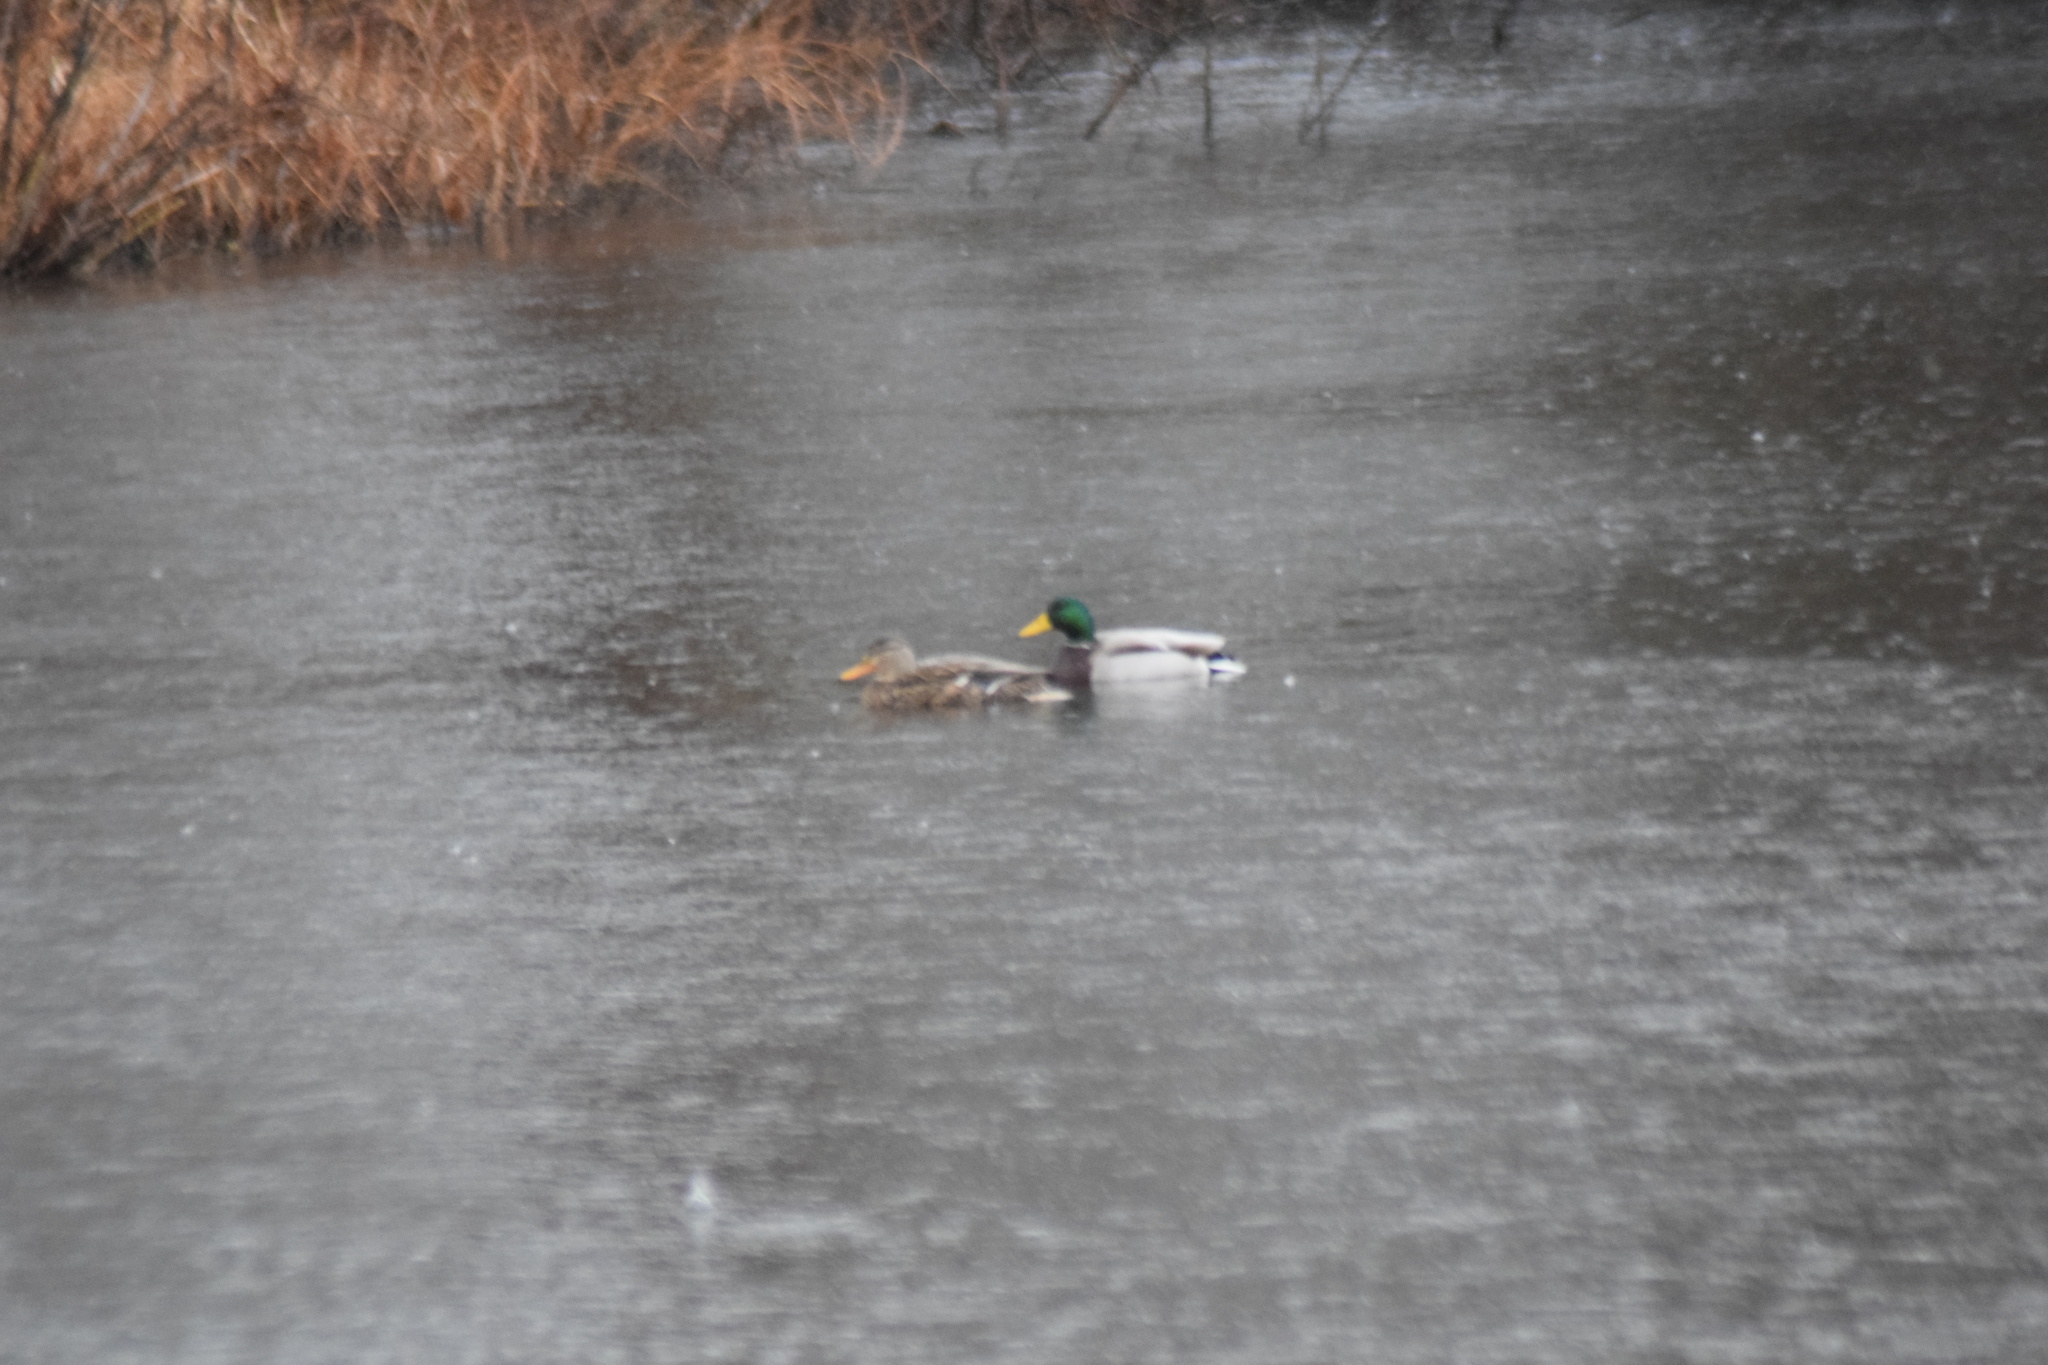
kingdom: Animalia
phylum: Chordata
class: Aves
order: Anseriformes
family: Anatidae
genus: Anas
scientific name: Anas platyrhynchos
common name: Mallard
